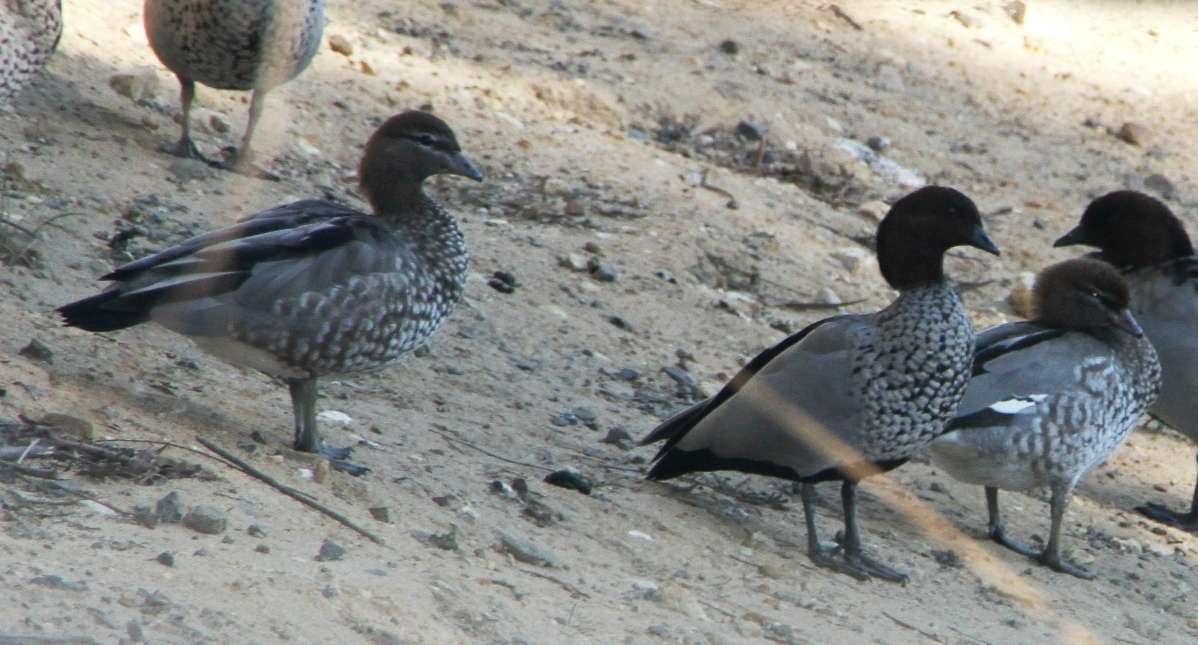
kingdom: Animalia
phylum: Chordata
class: Aves
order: Anseriformes
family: Anatidae
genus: Chenonetta
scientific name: Chenonetta jubata
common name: Maned duck
